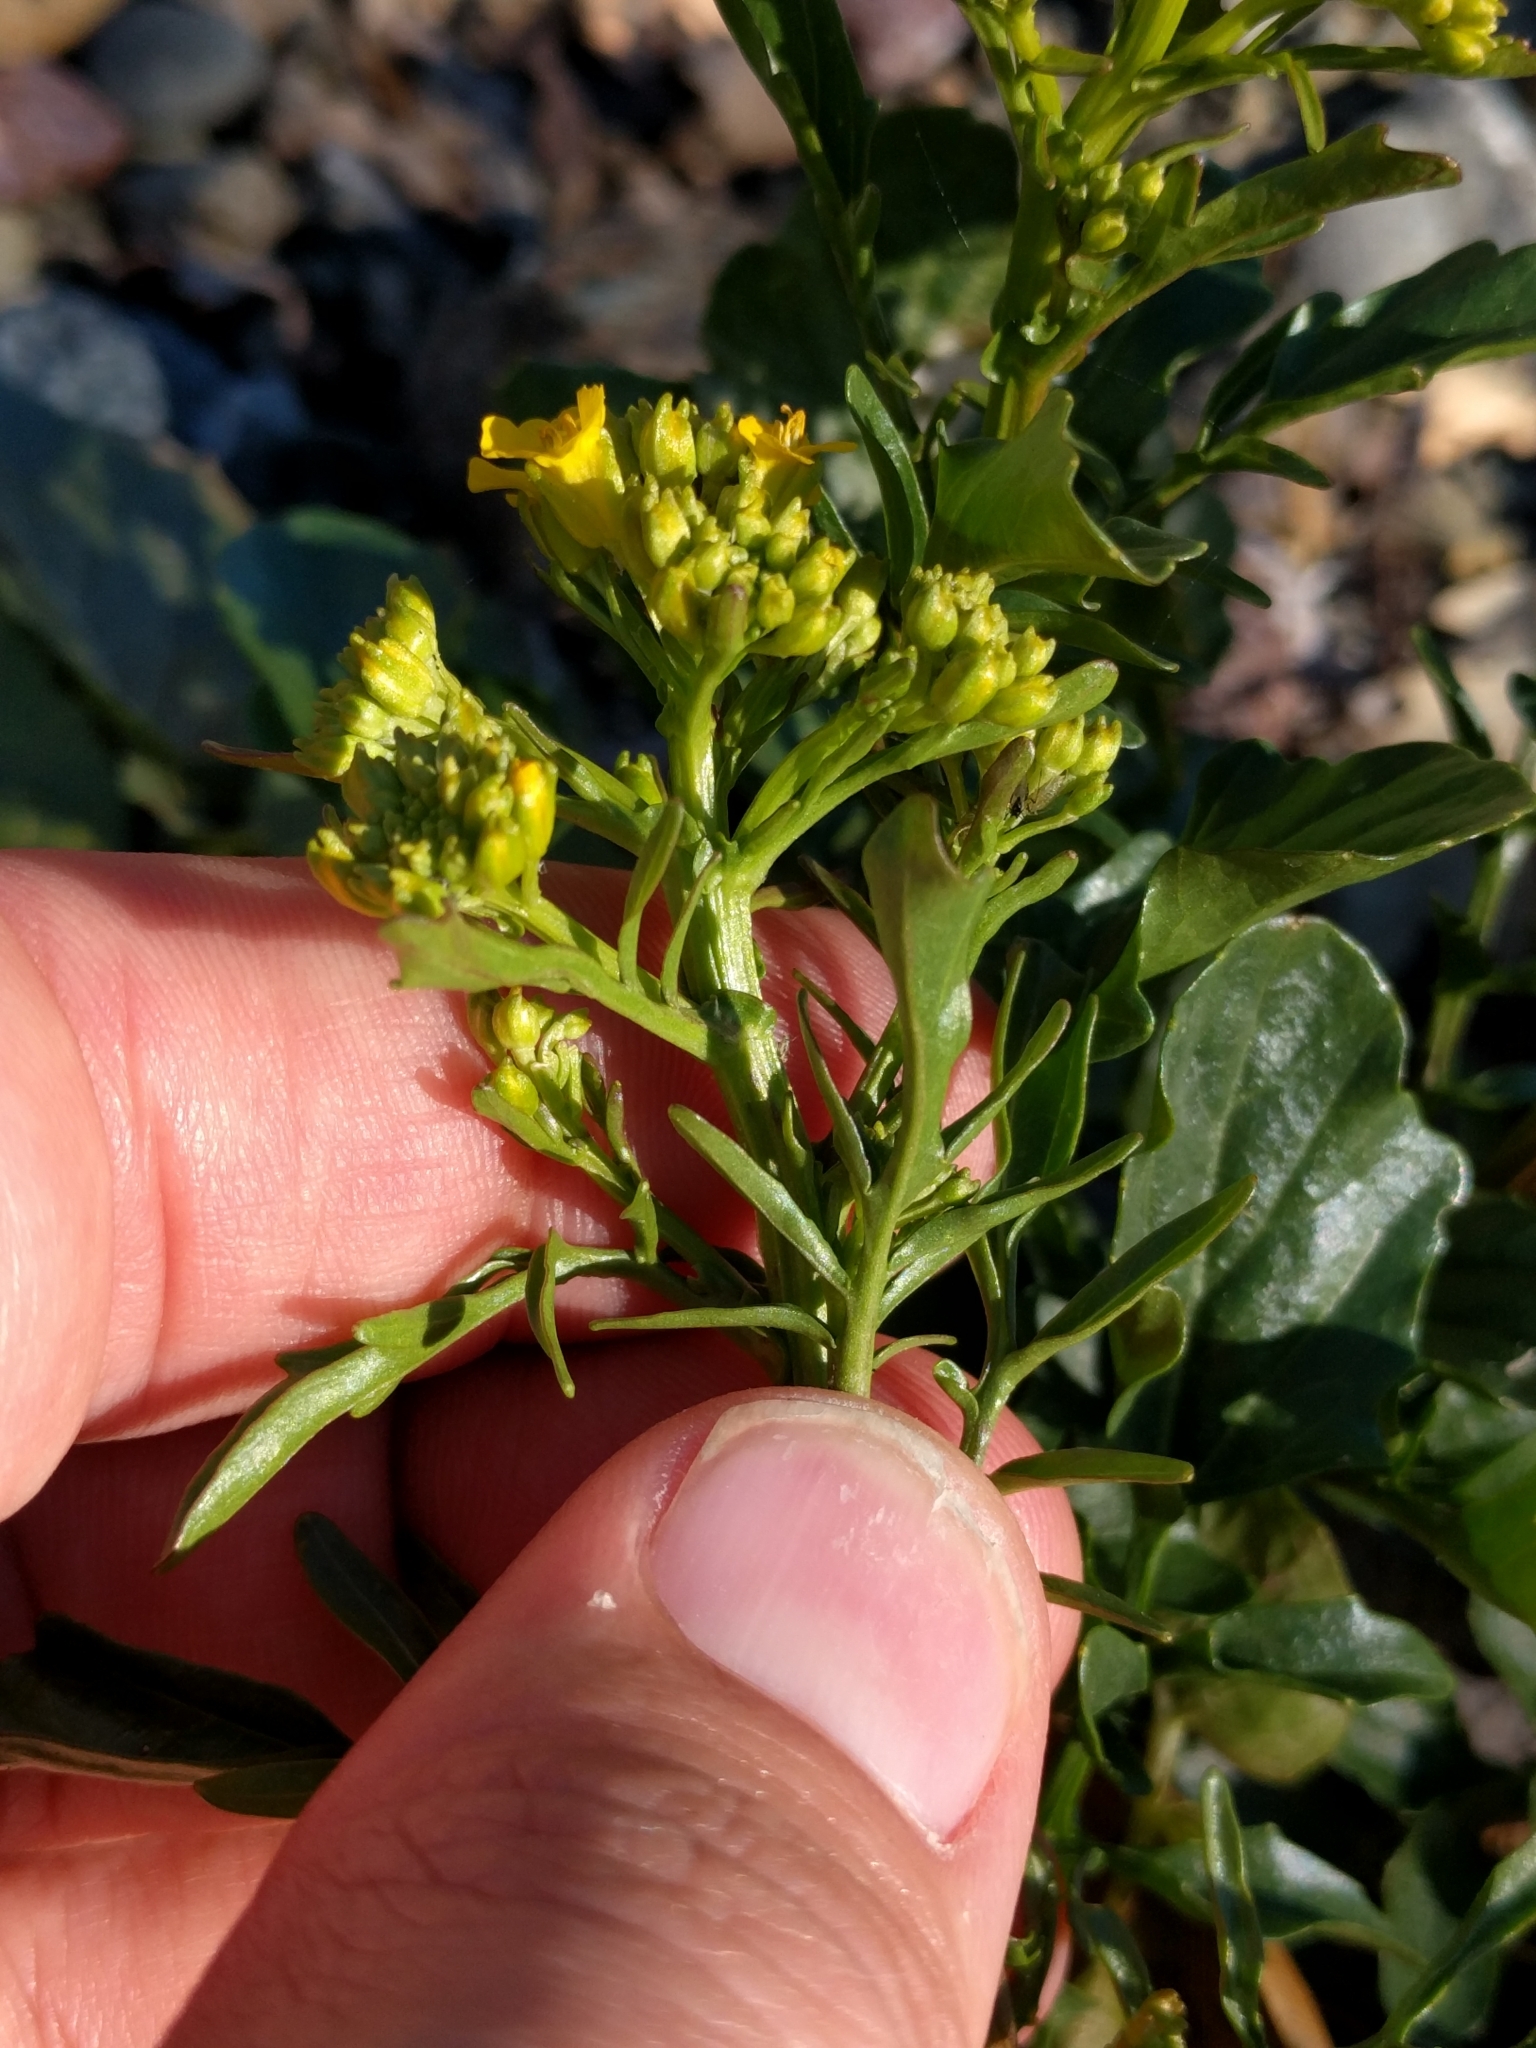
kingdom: Plantae
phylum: Tracheophyta
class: Magnoliopsida
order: Brassicales
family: Brassicaceae
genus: Barbarea
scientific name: Barbarea orthoceras
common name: American wintercress
